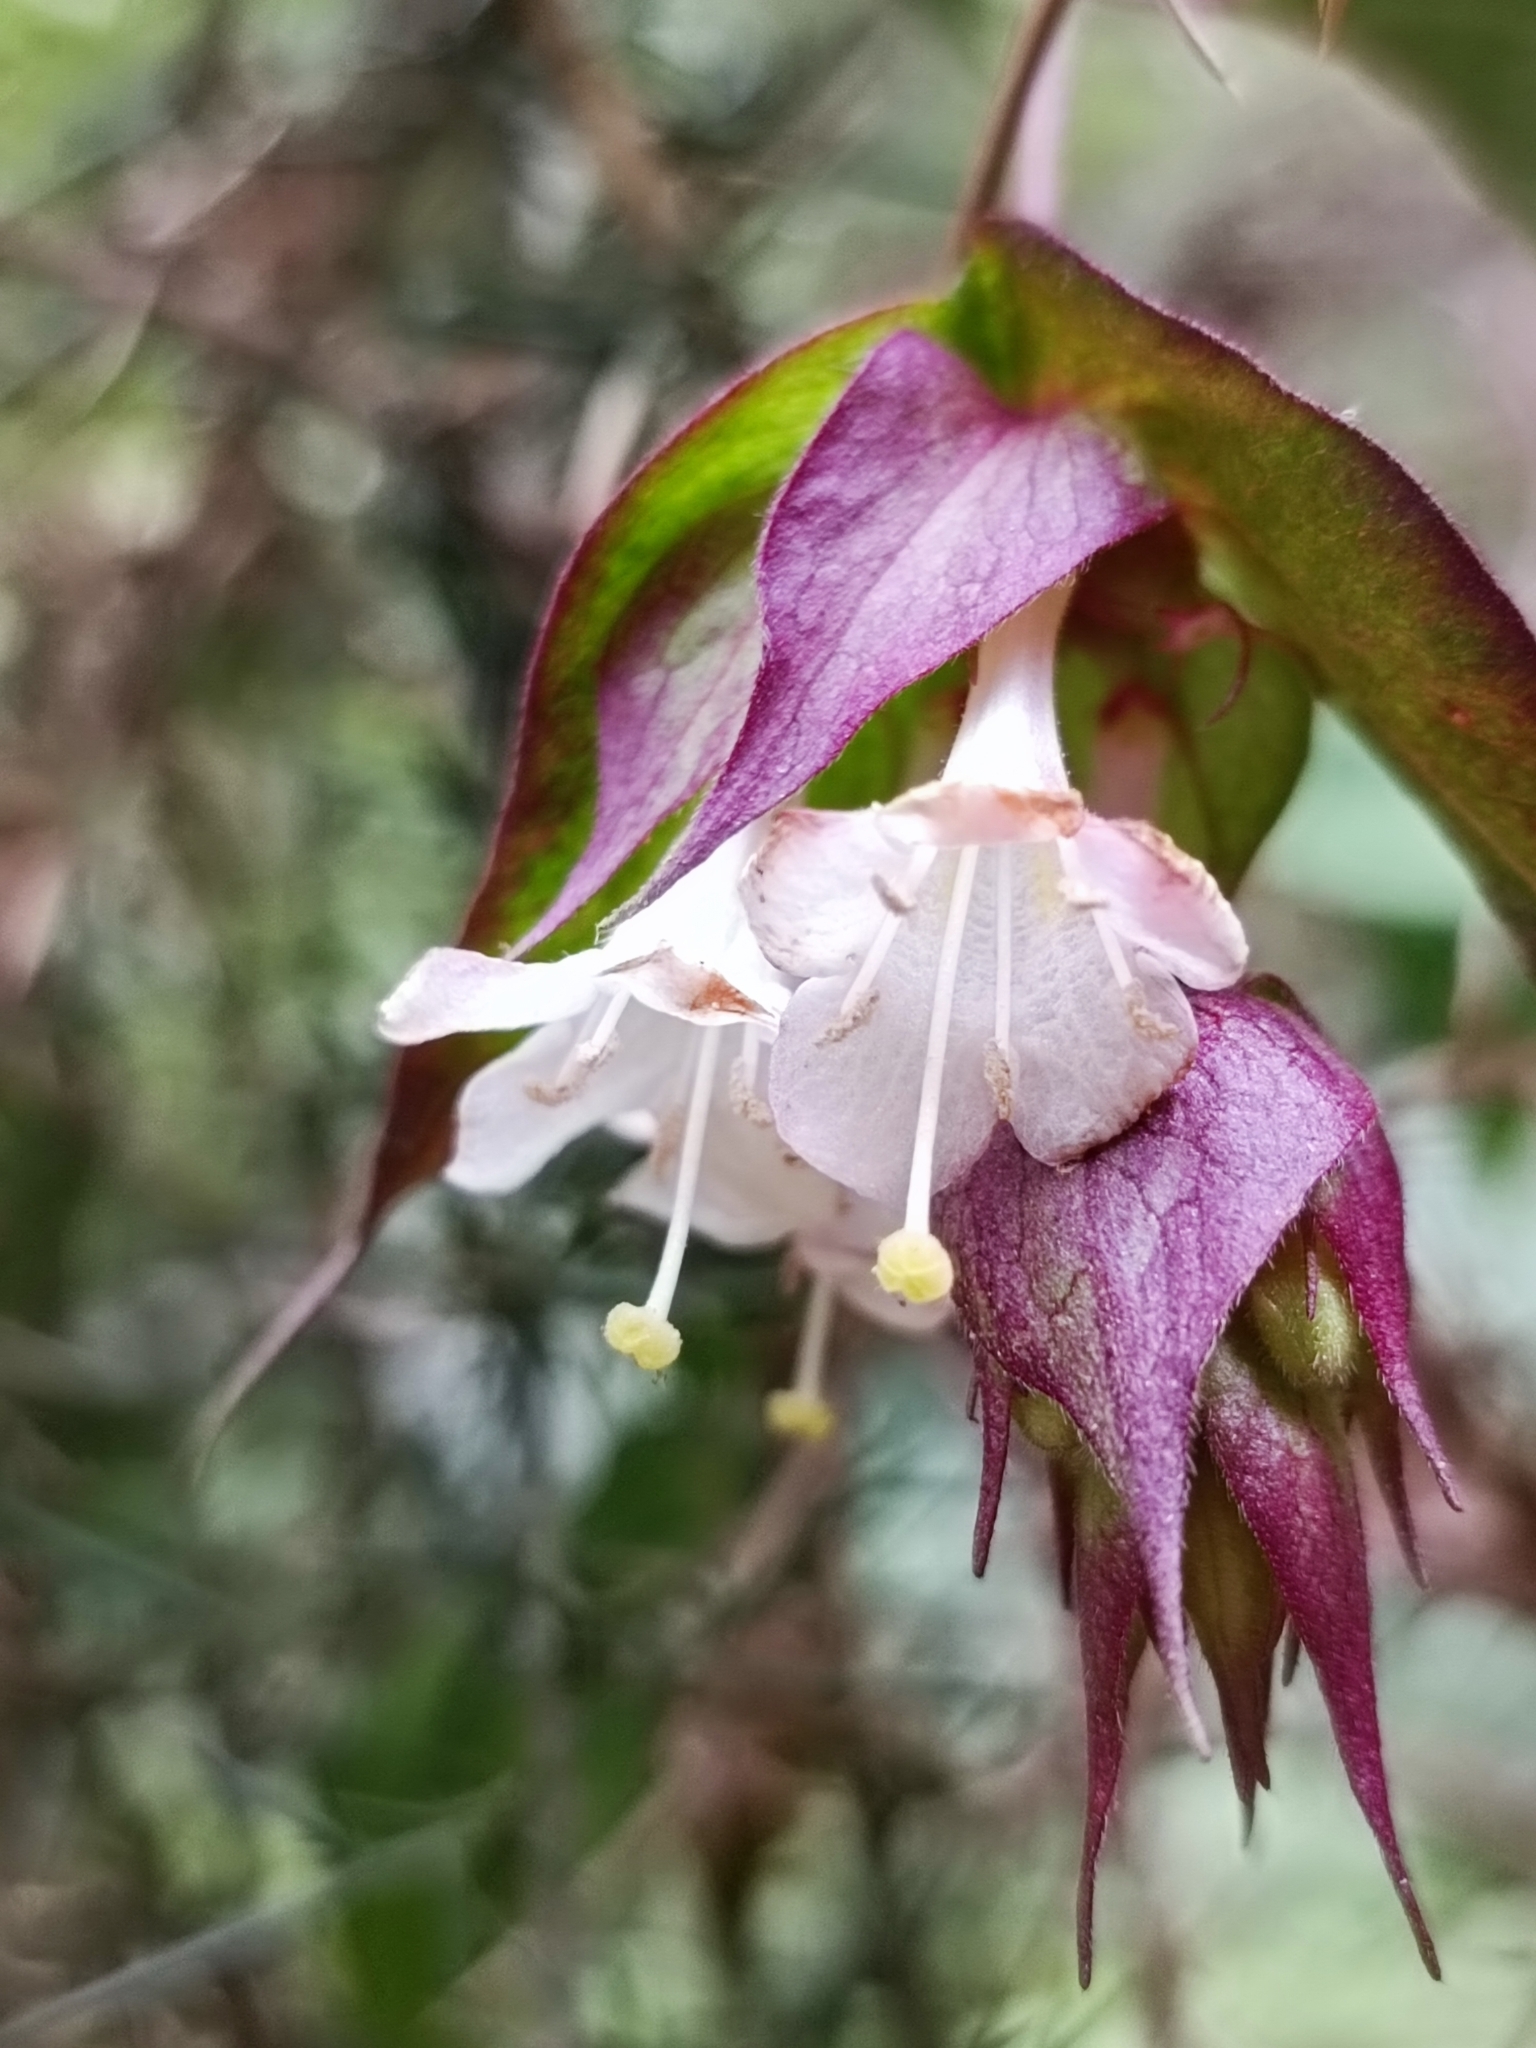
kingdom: Plantae
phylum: Tracheophyta
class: Magnoliopsida
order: Dipsacales
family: Caprifoliaceae
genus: Leycesteria
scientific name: Leycesteria formosa
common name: Himalayan honeysuckle
